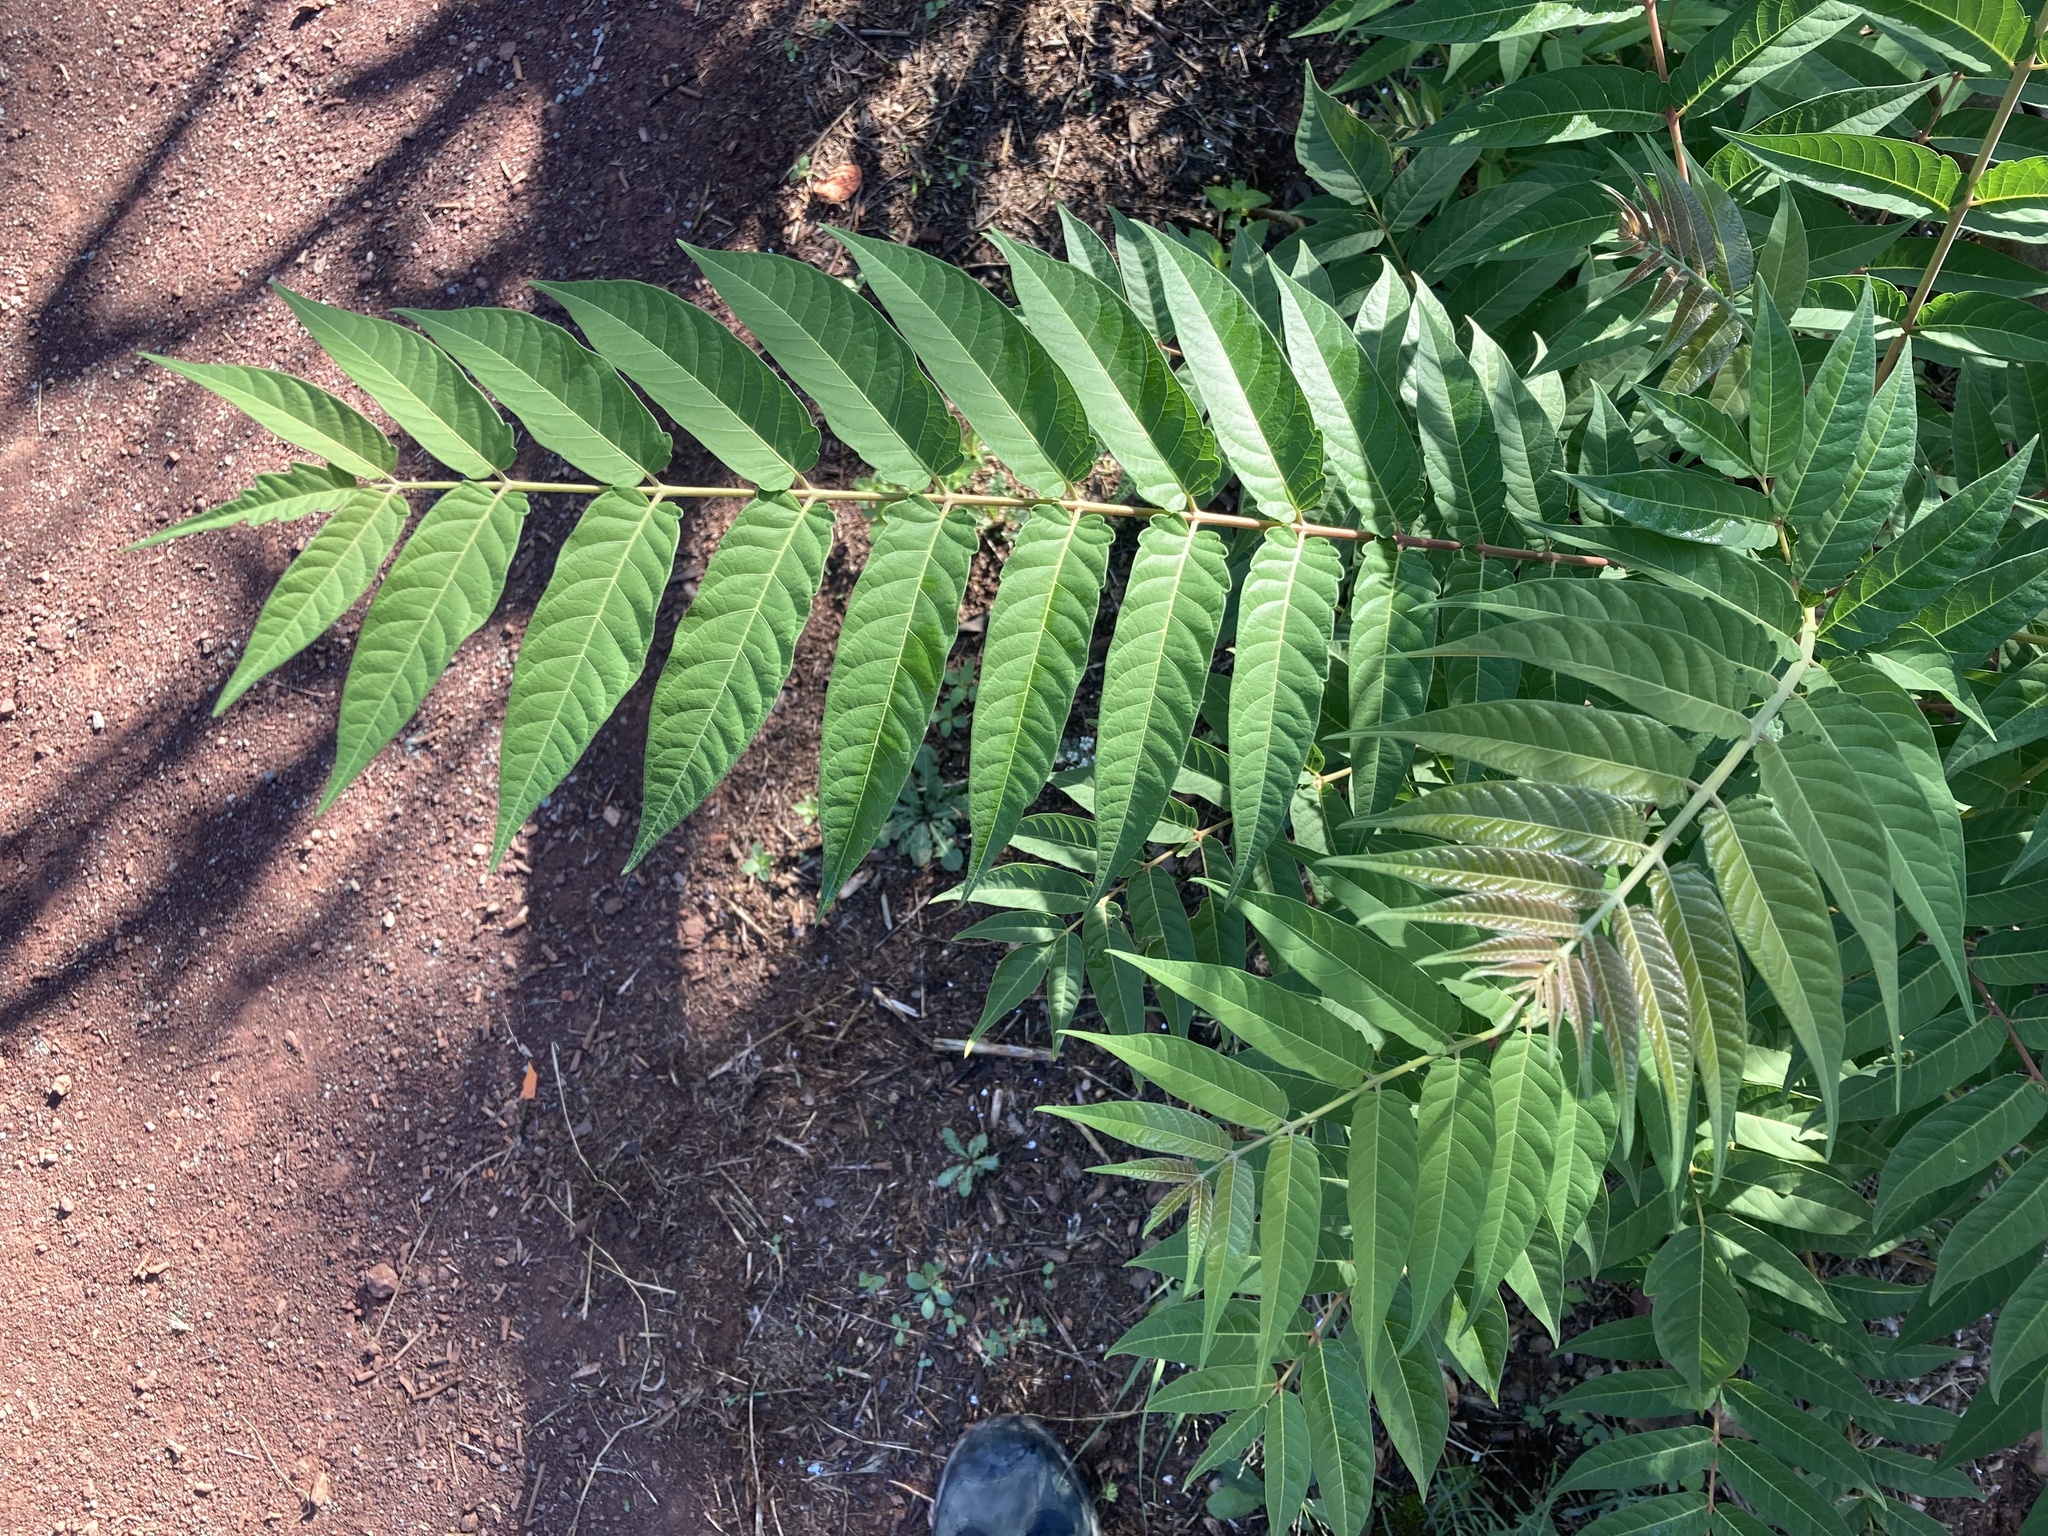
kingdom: Plantae
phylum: Tracheophyta
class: Magnoliopsida
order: Sapindales
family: Simaroubaceae
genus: Ailanthus
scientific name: Ailanthus altissima
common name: Tree-of-heaven
